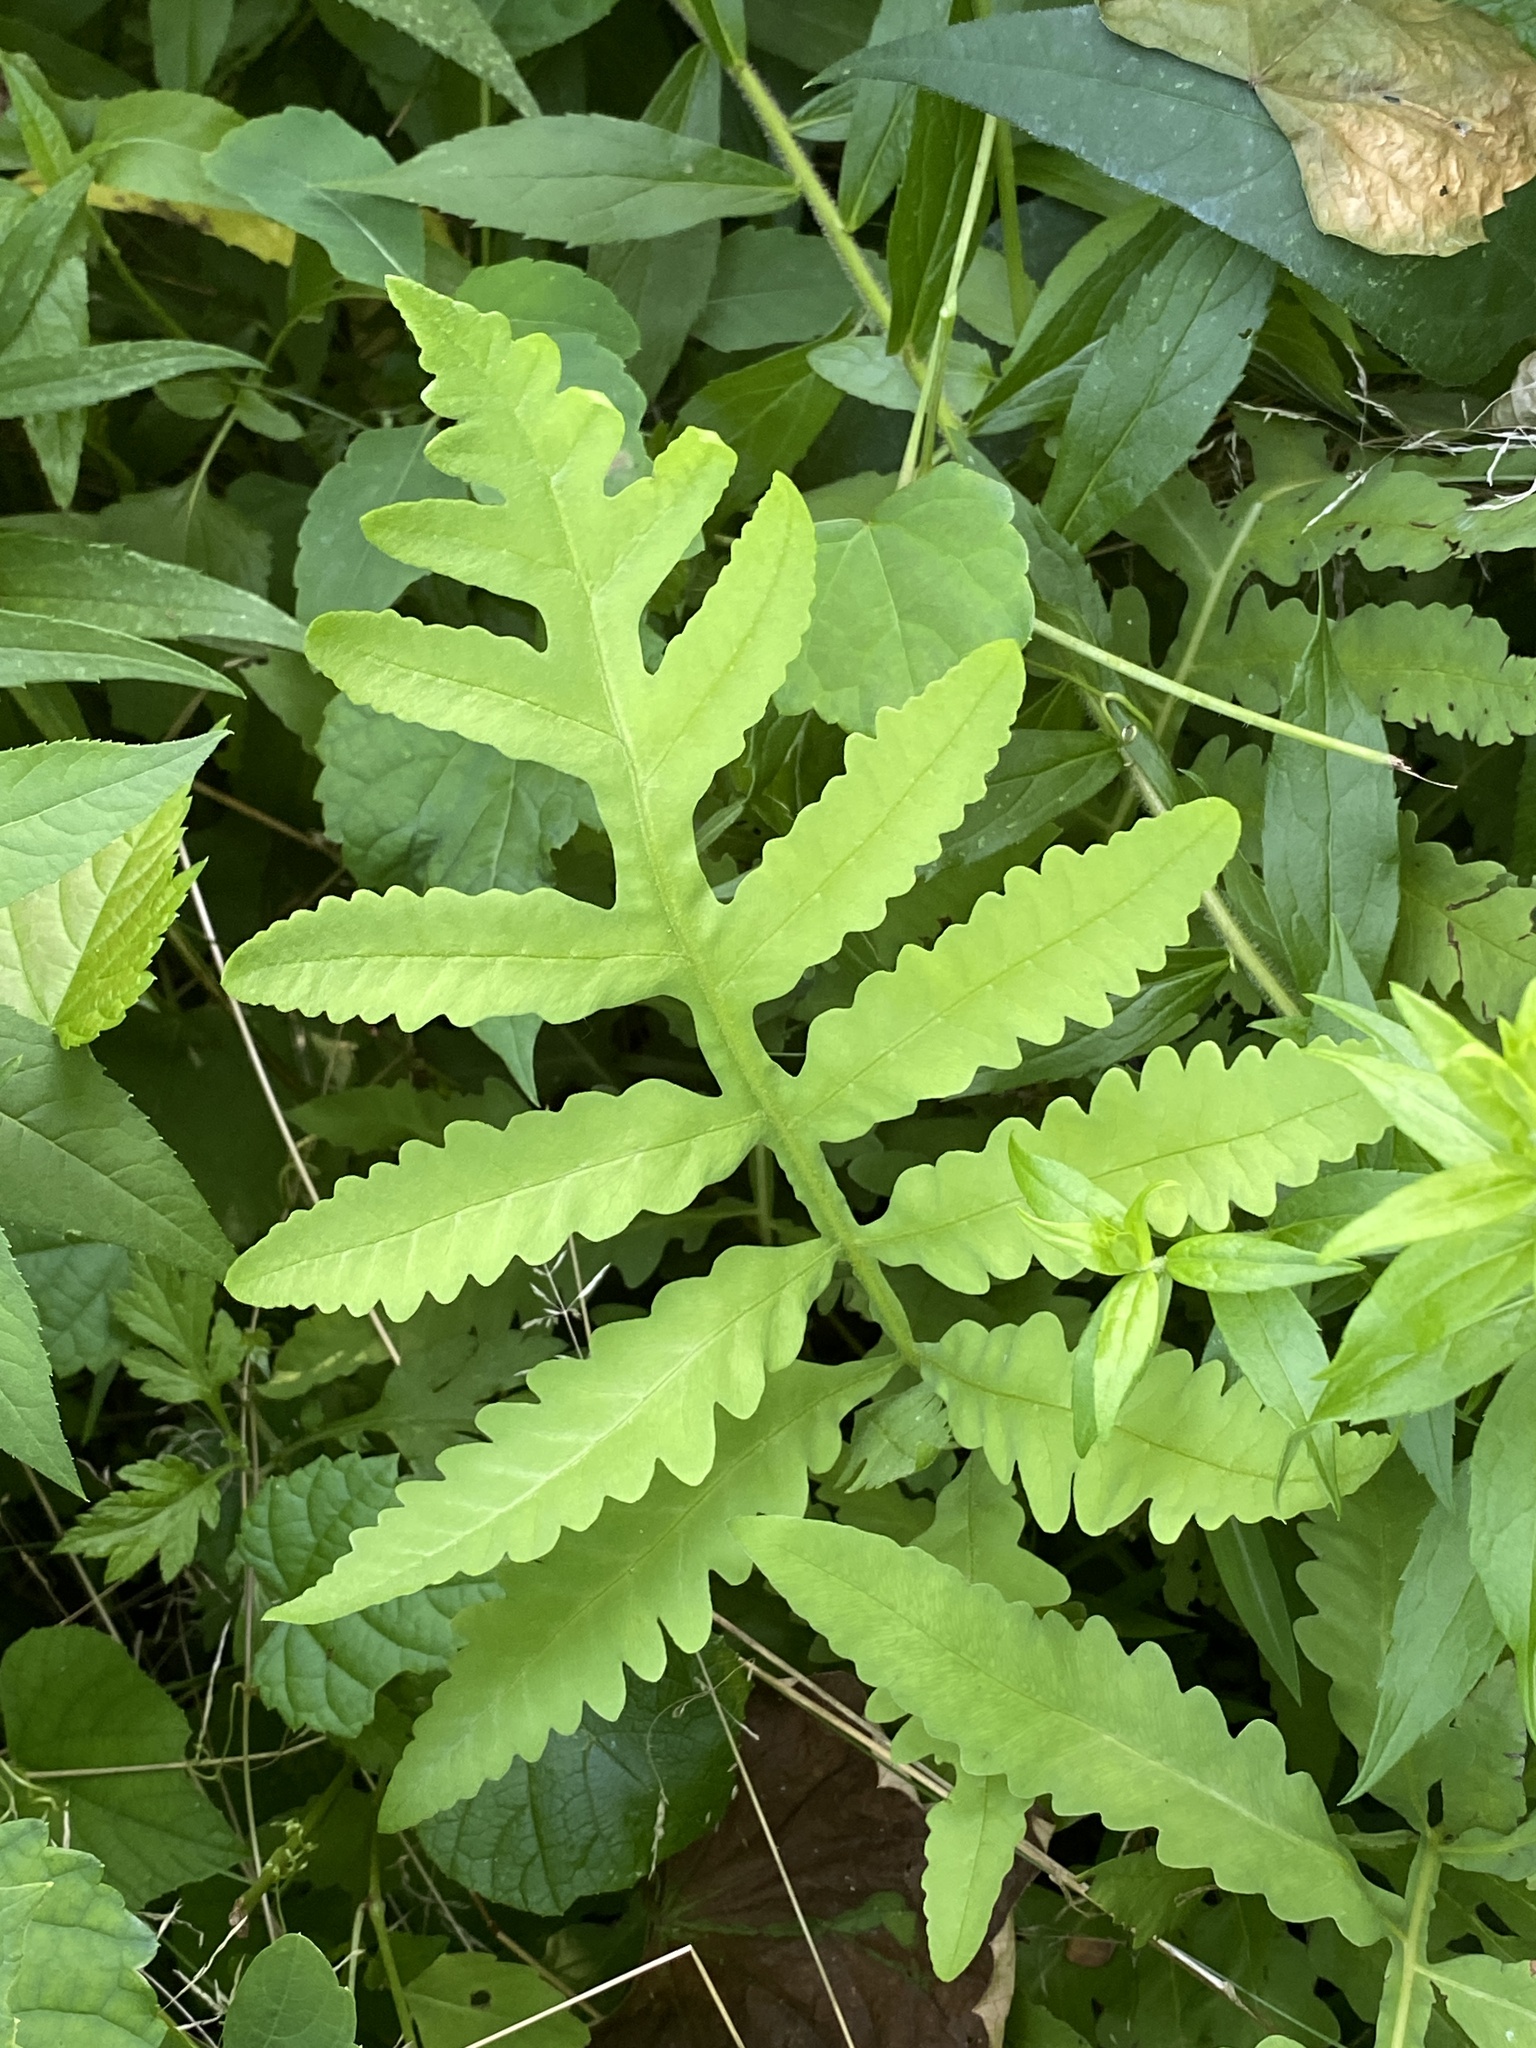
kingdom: Plantae
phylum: Tracheophyta
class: Polypodiopsida
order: Polypodiales
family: Onocleaceae
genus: Onoclea
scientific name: Onoclea sensibilis
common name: Sensitive fern
